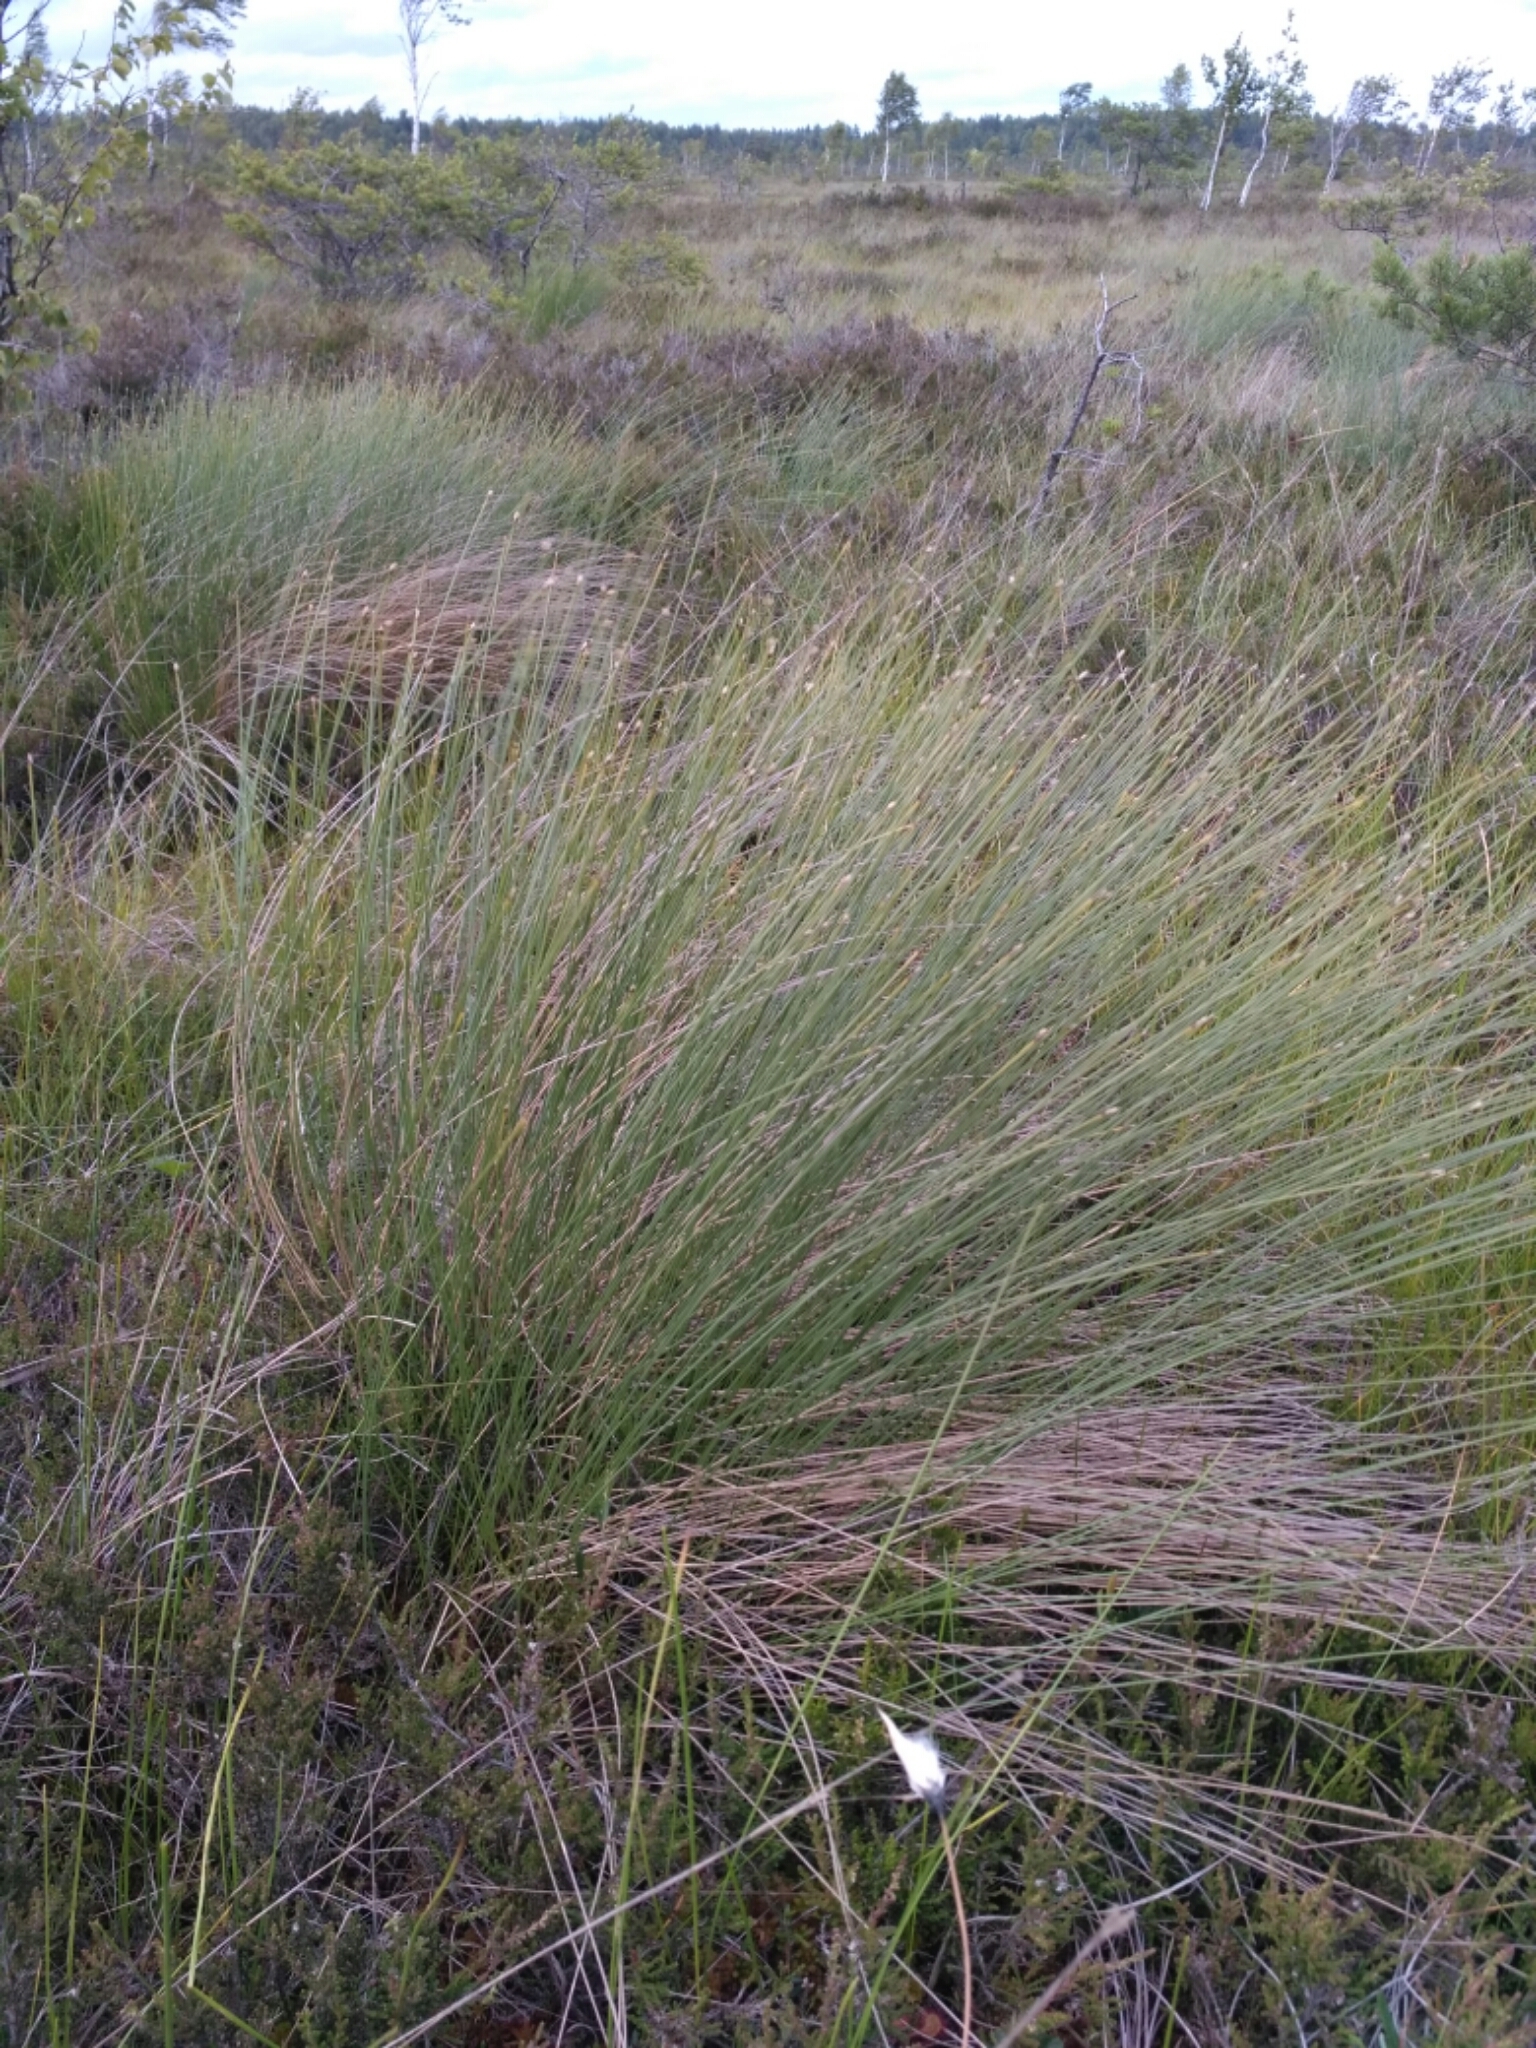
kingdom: Plantae
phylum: Tracheophyta
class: Liliopsida
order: Poales
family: Cyperaceae
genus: Trichophorum
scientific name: Trichophorum cespitosum
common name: Cespitose bulrush
